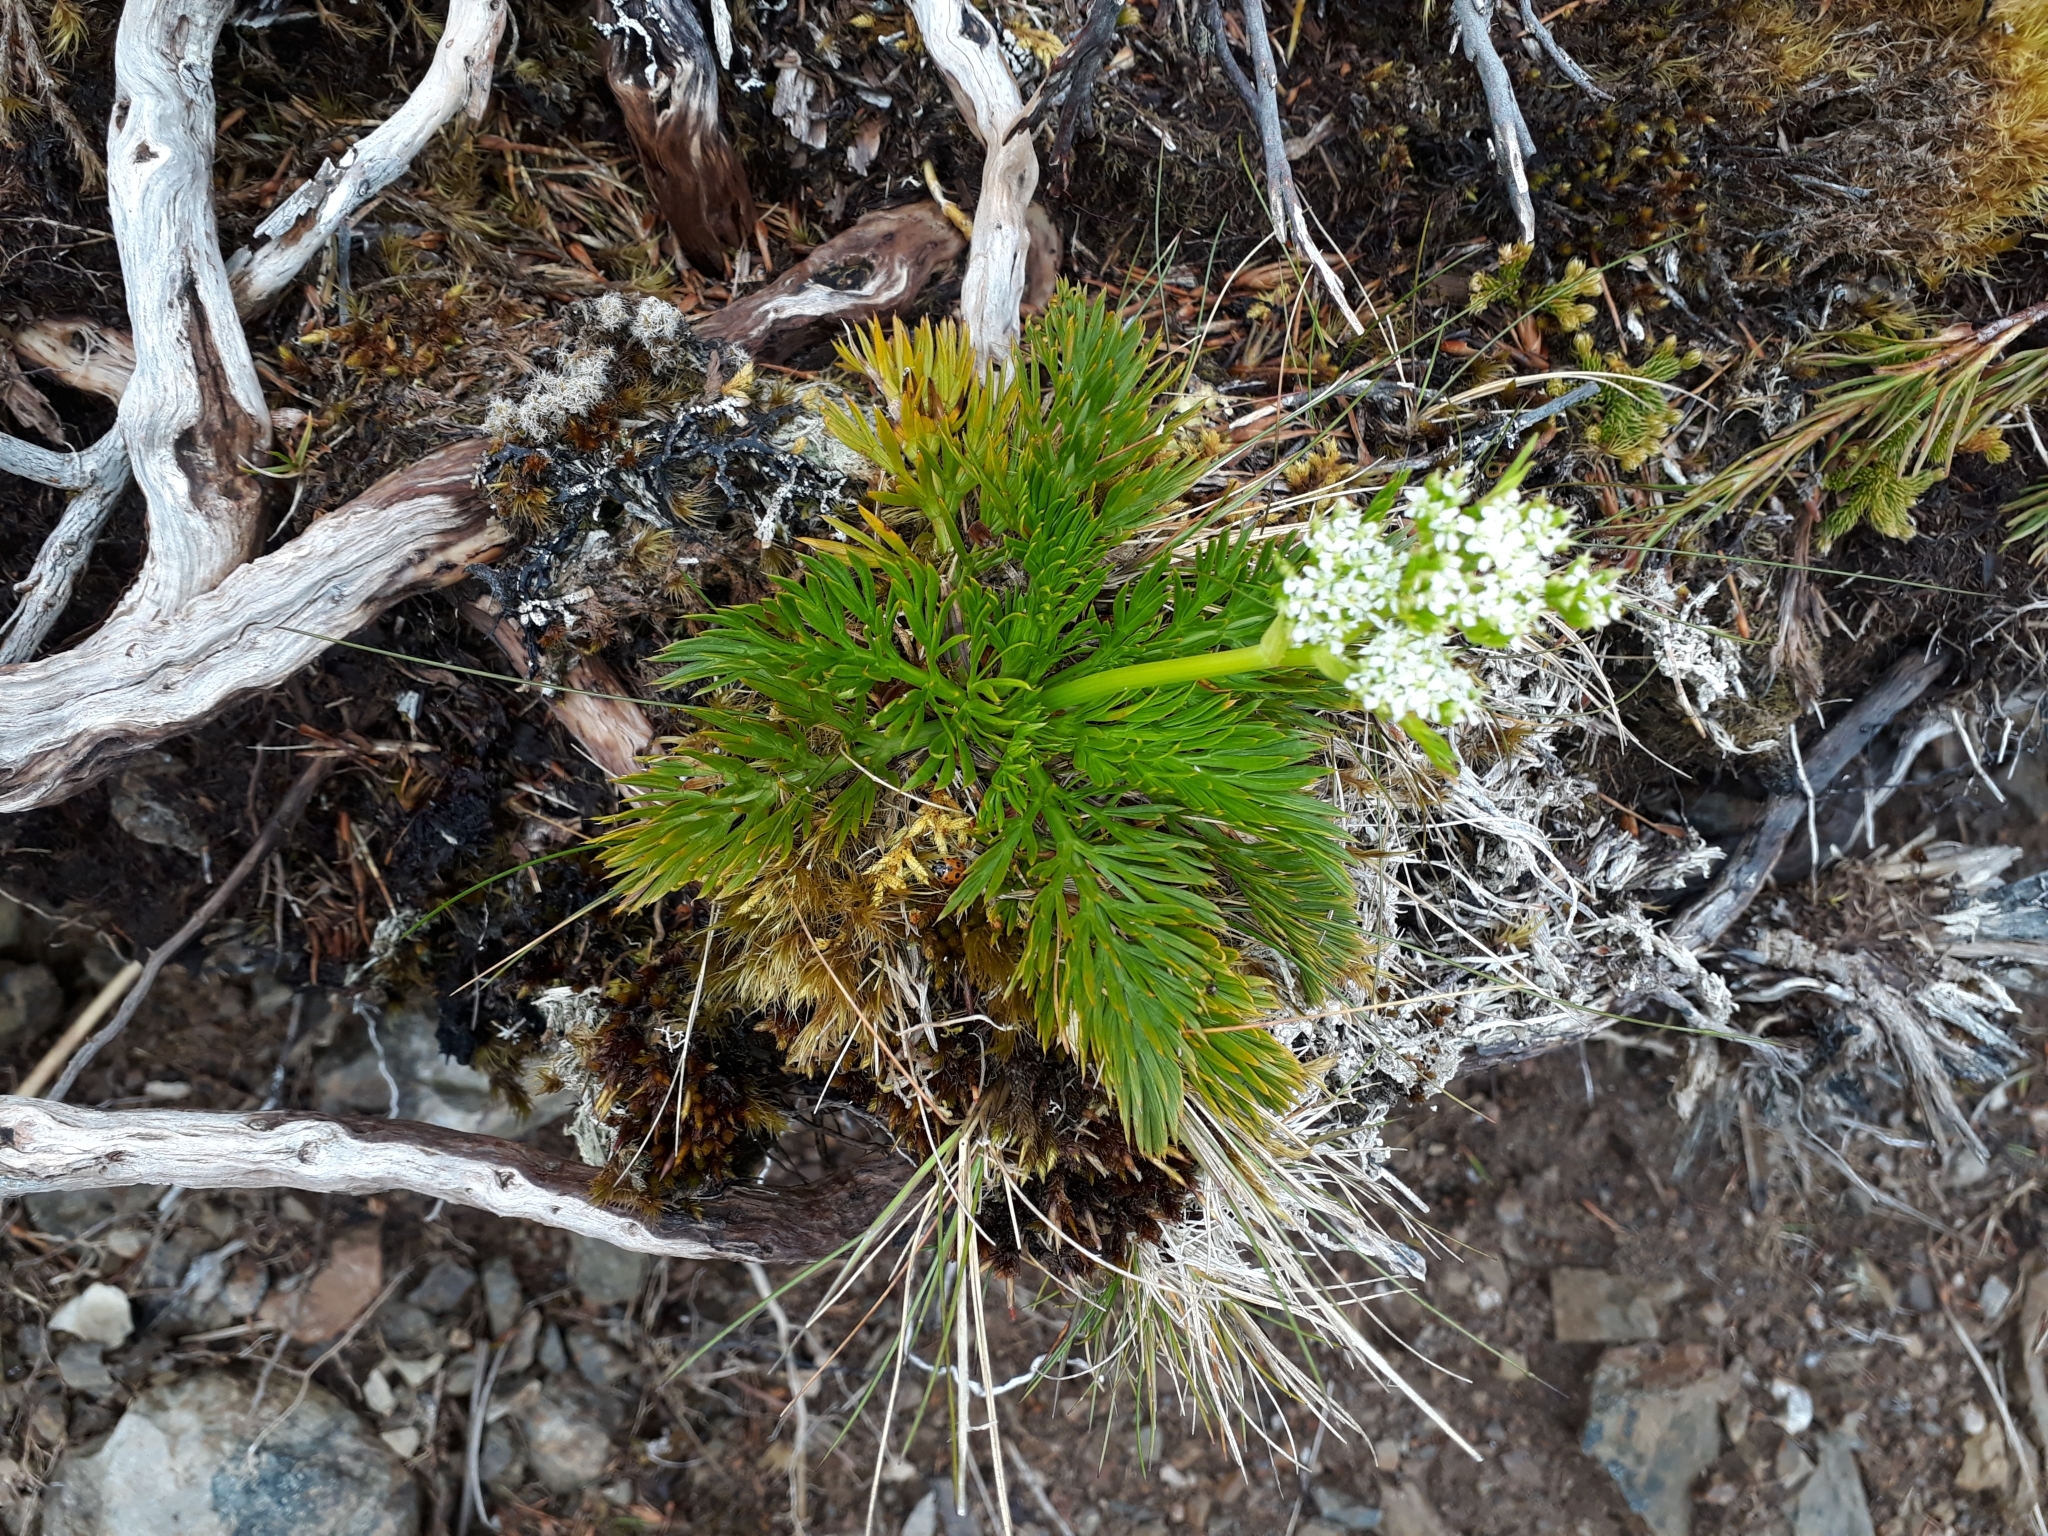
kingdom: Plantae
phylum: Tracheophyta
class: Magnoliopsida
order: Apiales
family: Apiaceae
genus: Aciphylla
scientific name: Aciphylla dissecta
